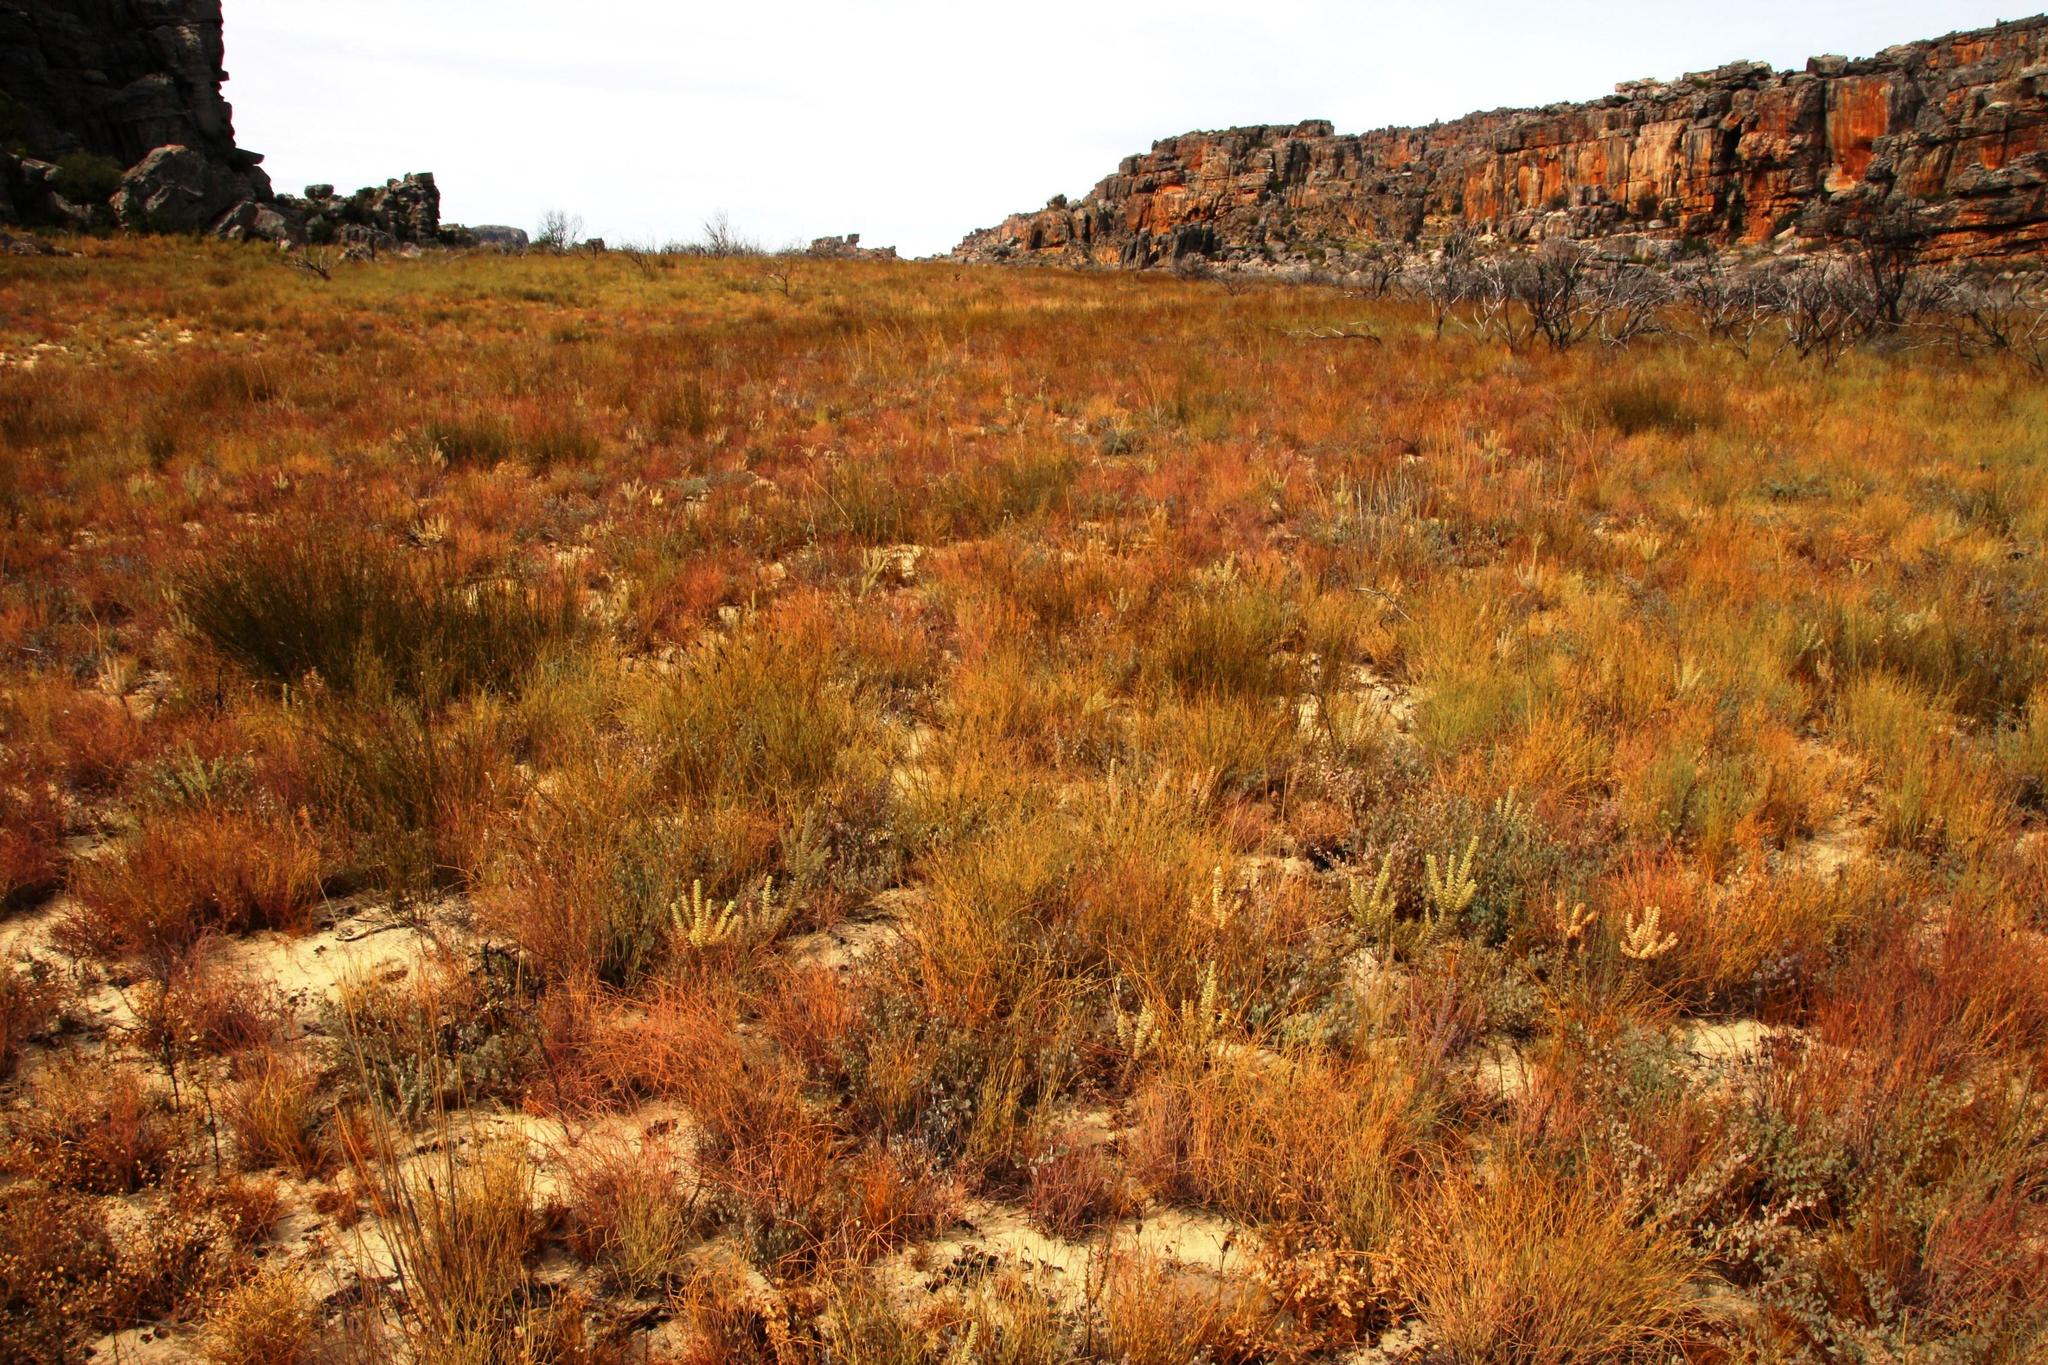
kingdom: Plantae
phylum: Tracheophyta
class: Magnoliopsida
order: Proteales
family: Proteaceae
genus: Leucadendron
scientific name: Leucadendron concavum
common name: Pakhuis conebush
